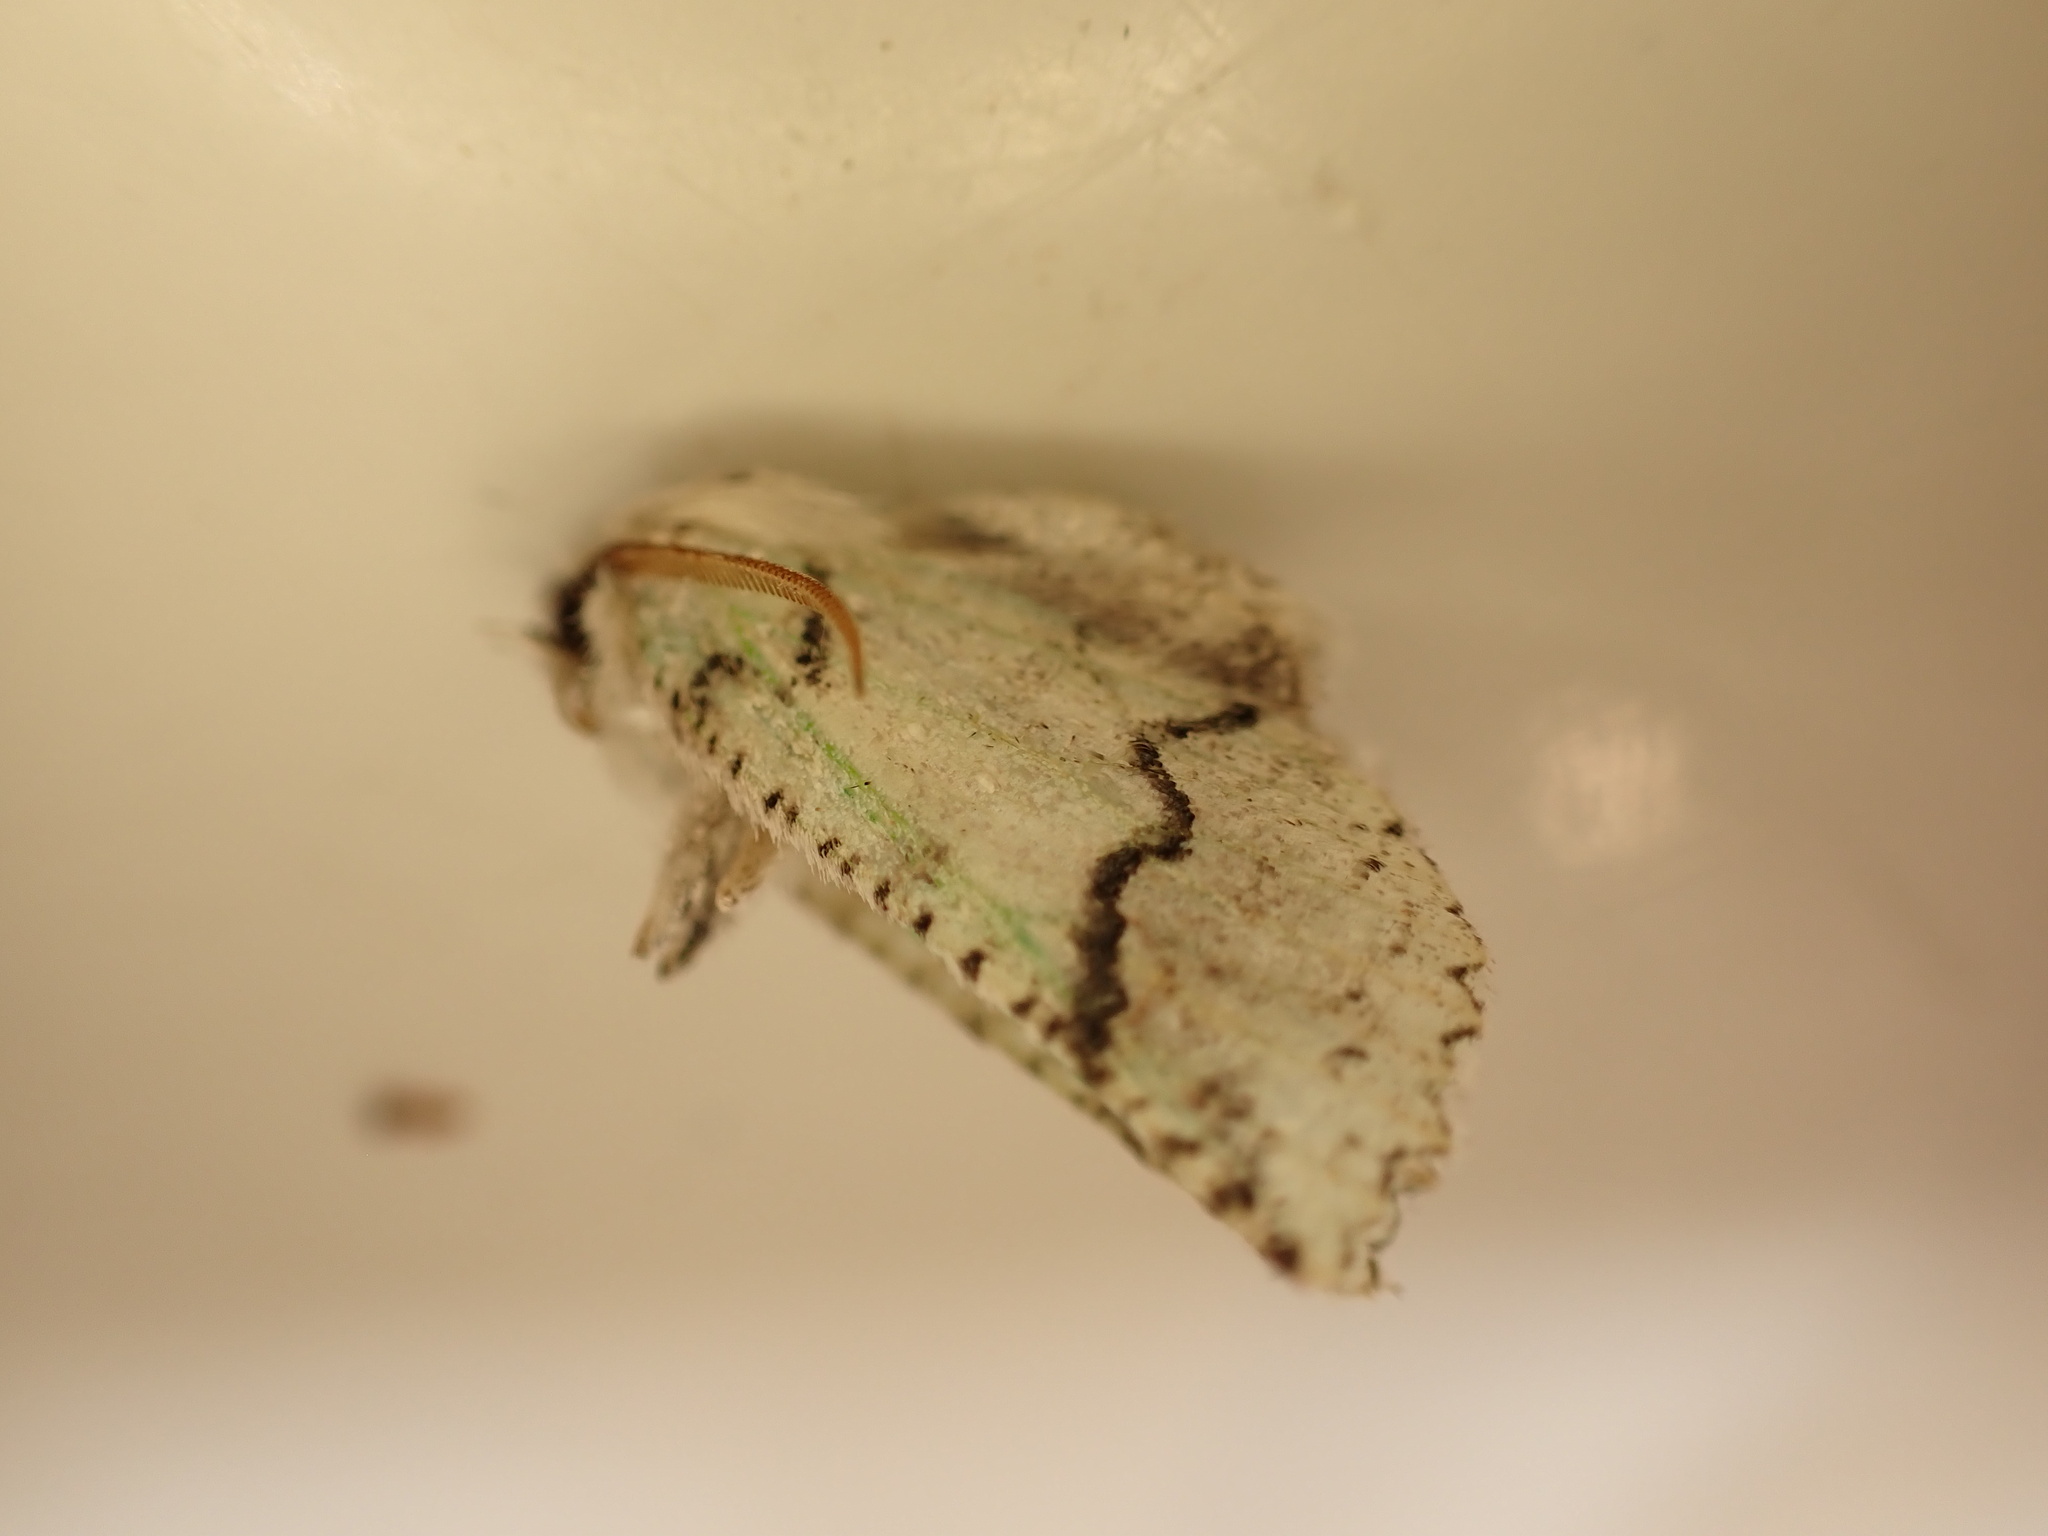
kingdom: Animalia
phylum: Arthropoda
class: Insecta
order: Lepidoptera
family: Geometridae
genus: Declana
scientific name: Declana floccosa
